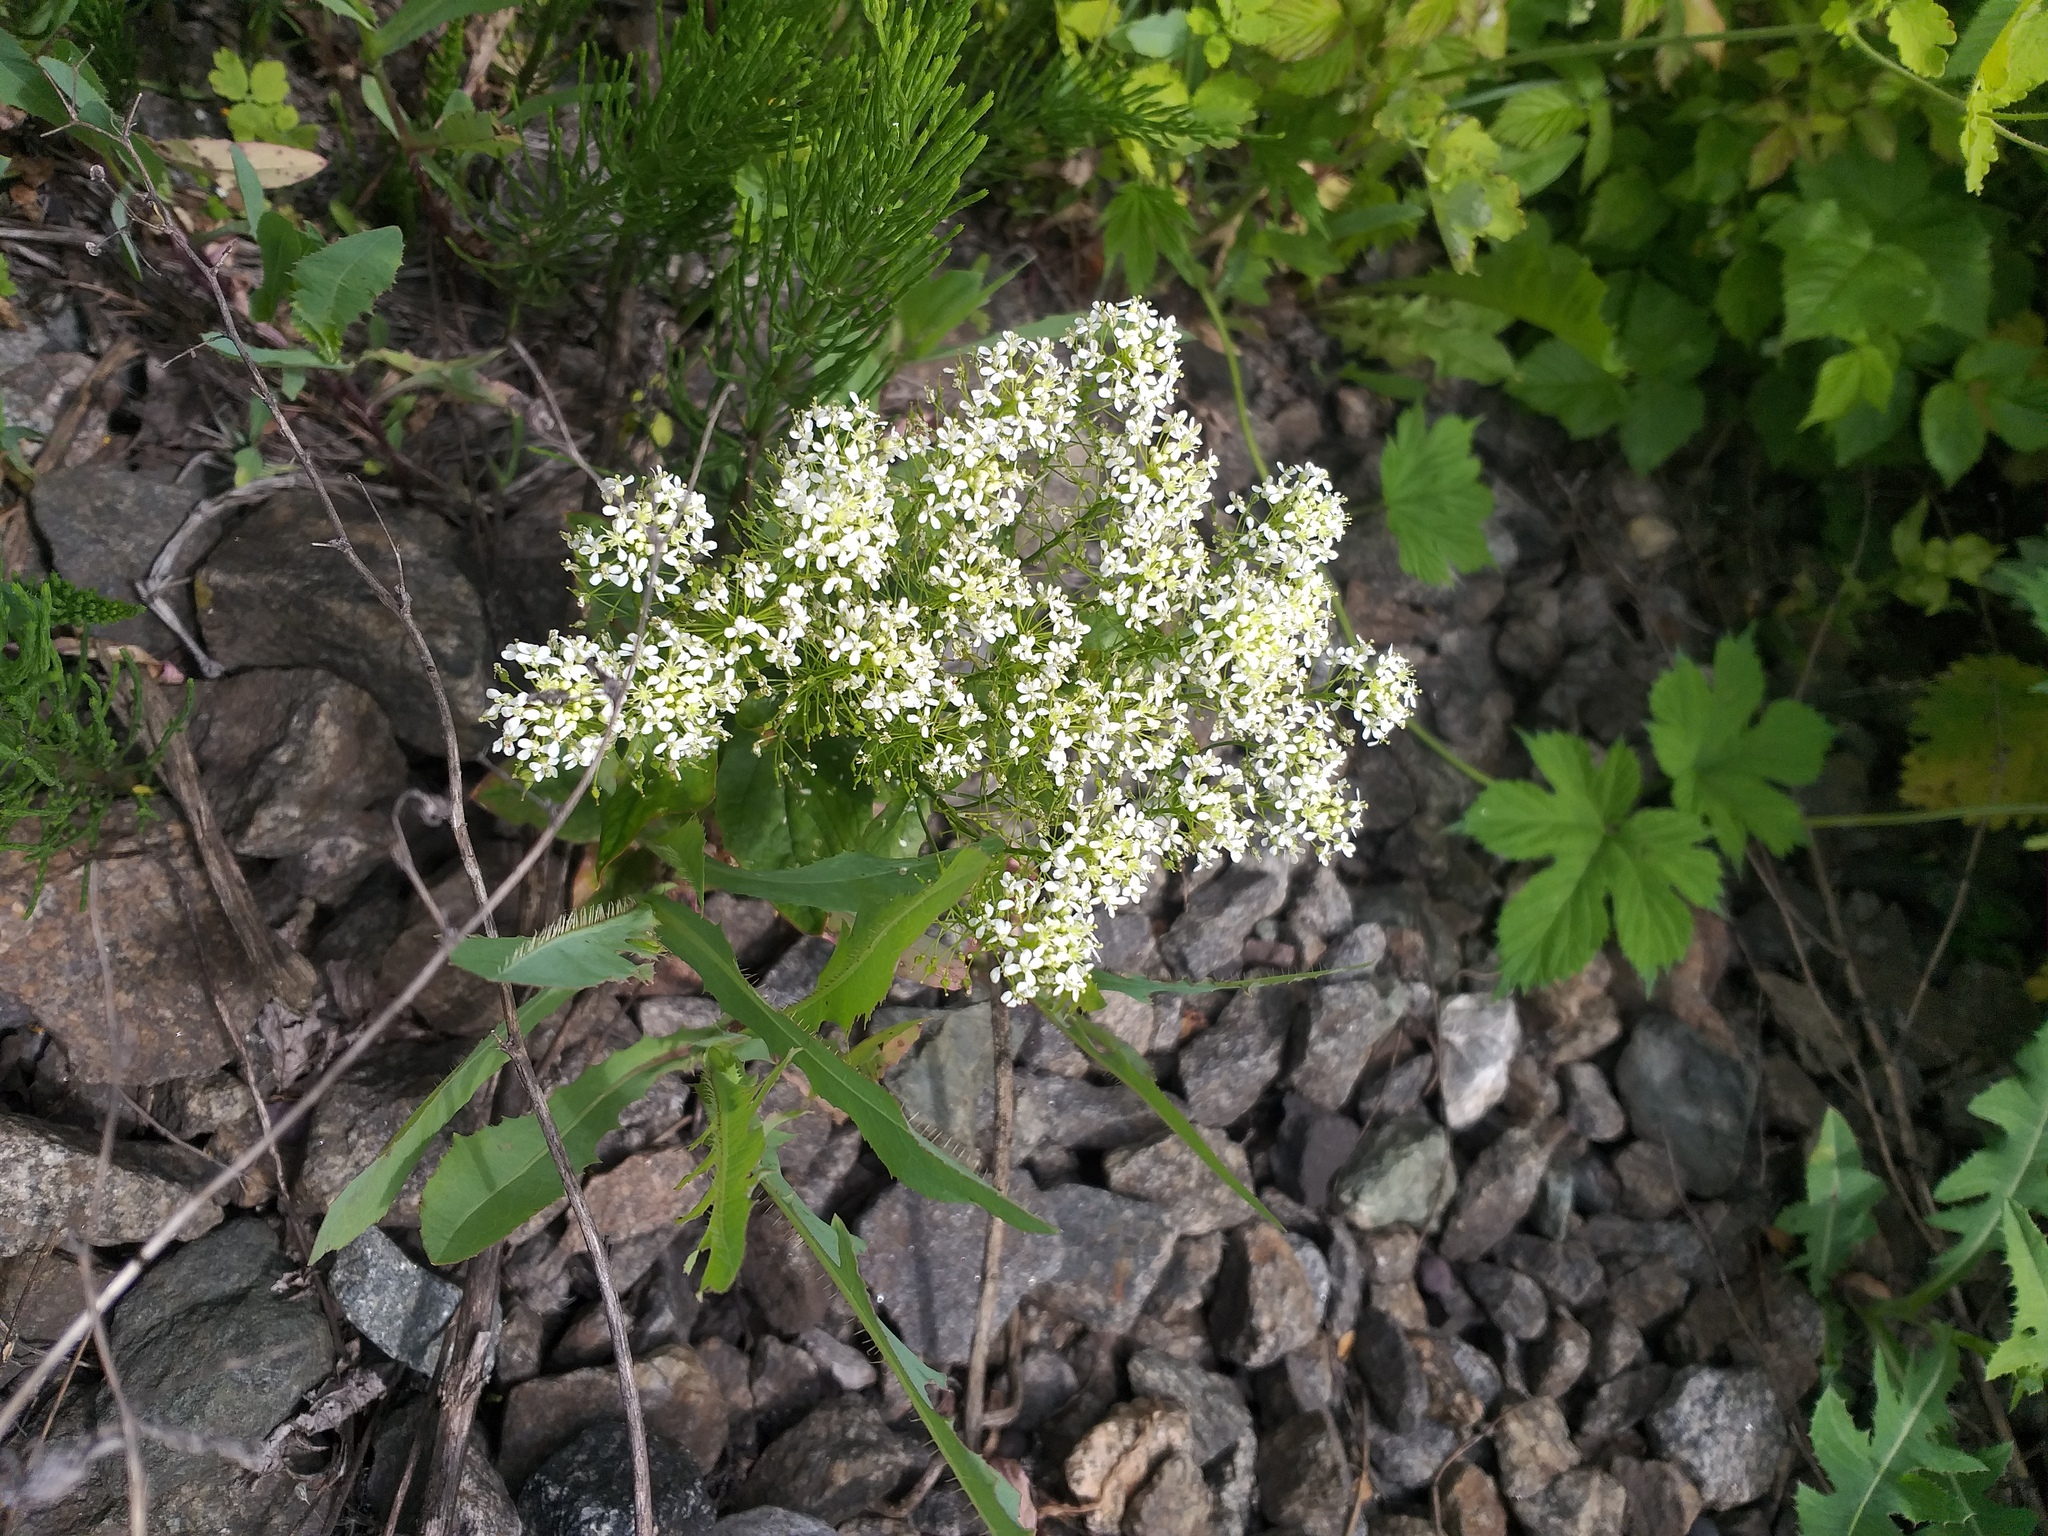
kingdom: Plantae
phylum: Tracheophyta
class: Magnoliopsida
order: Brassicales
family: Brassicaceae
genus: Lepidium
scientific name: Lepidium draba
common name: Hoary cress
